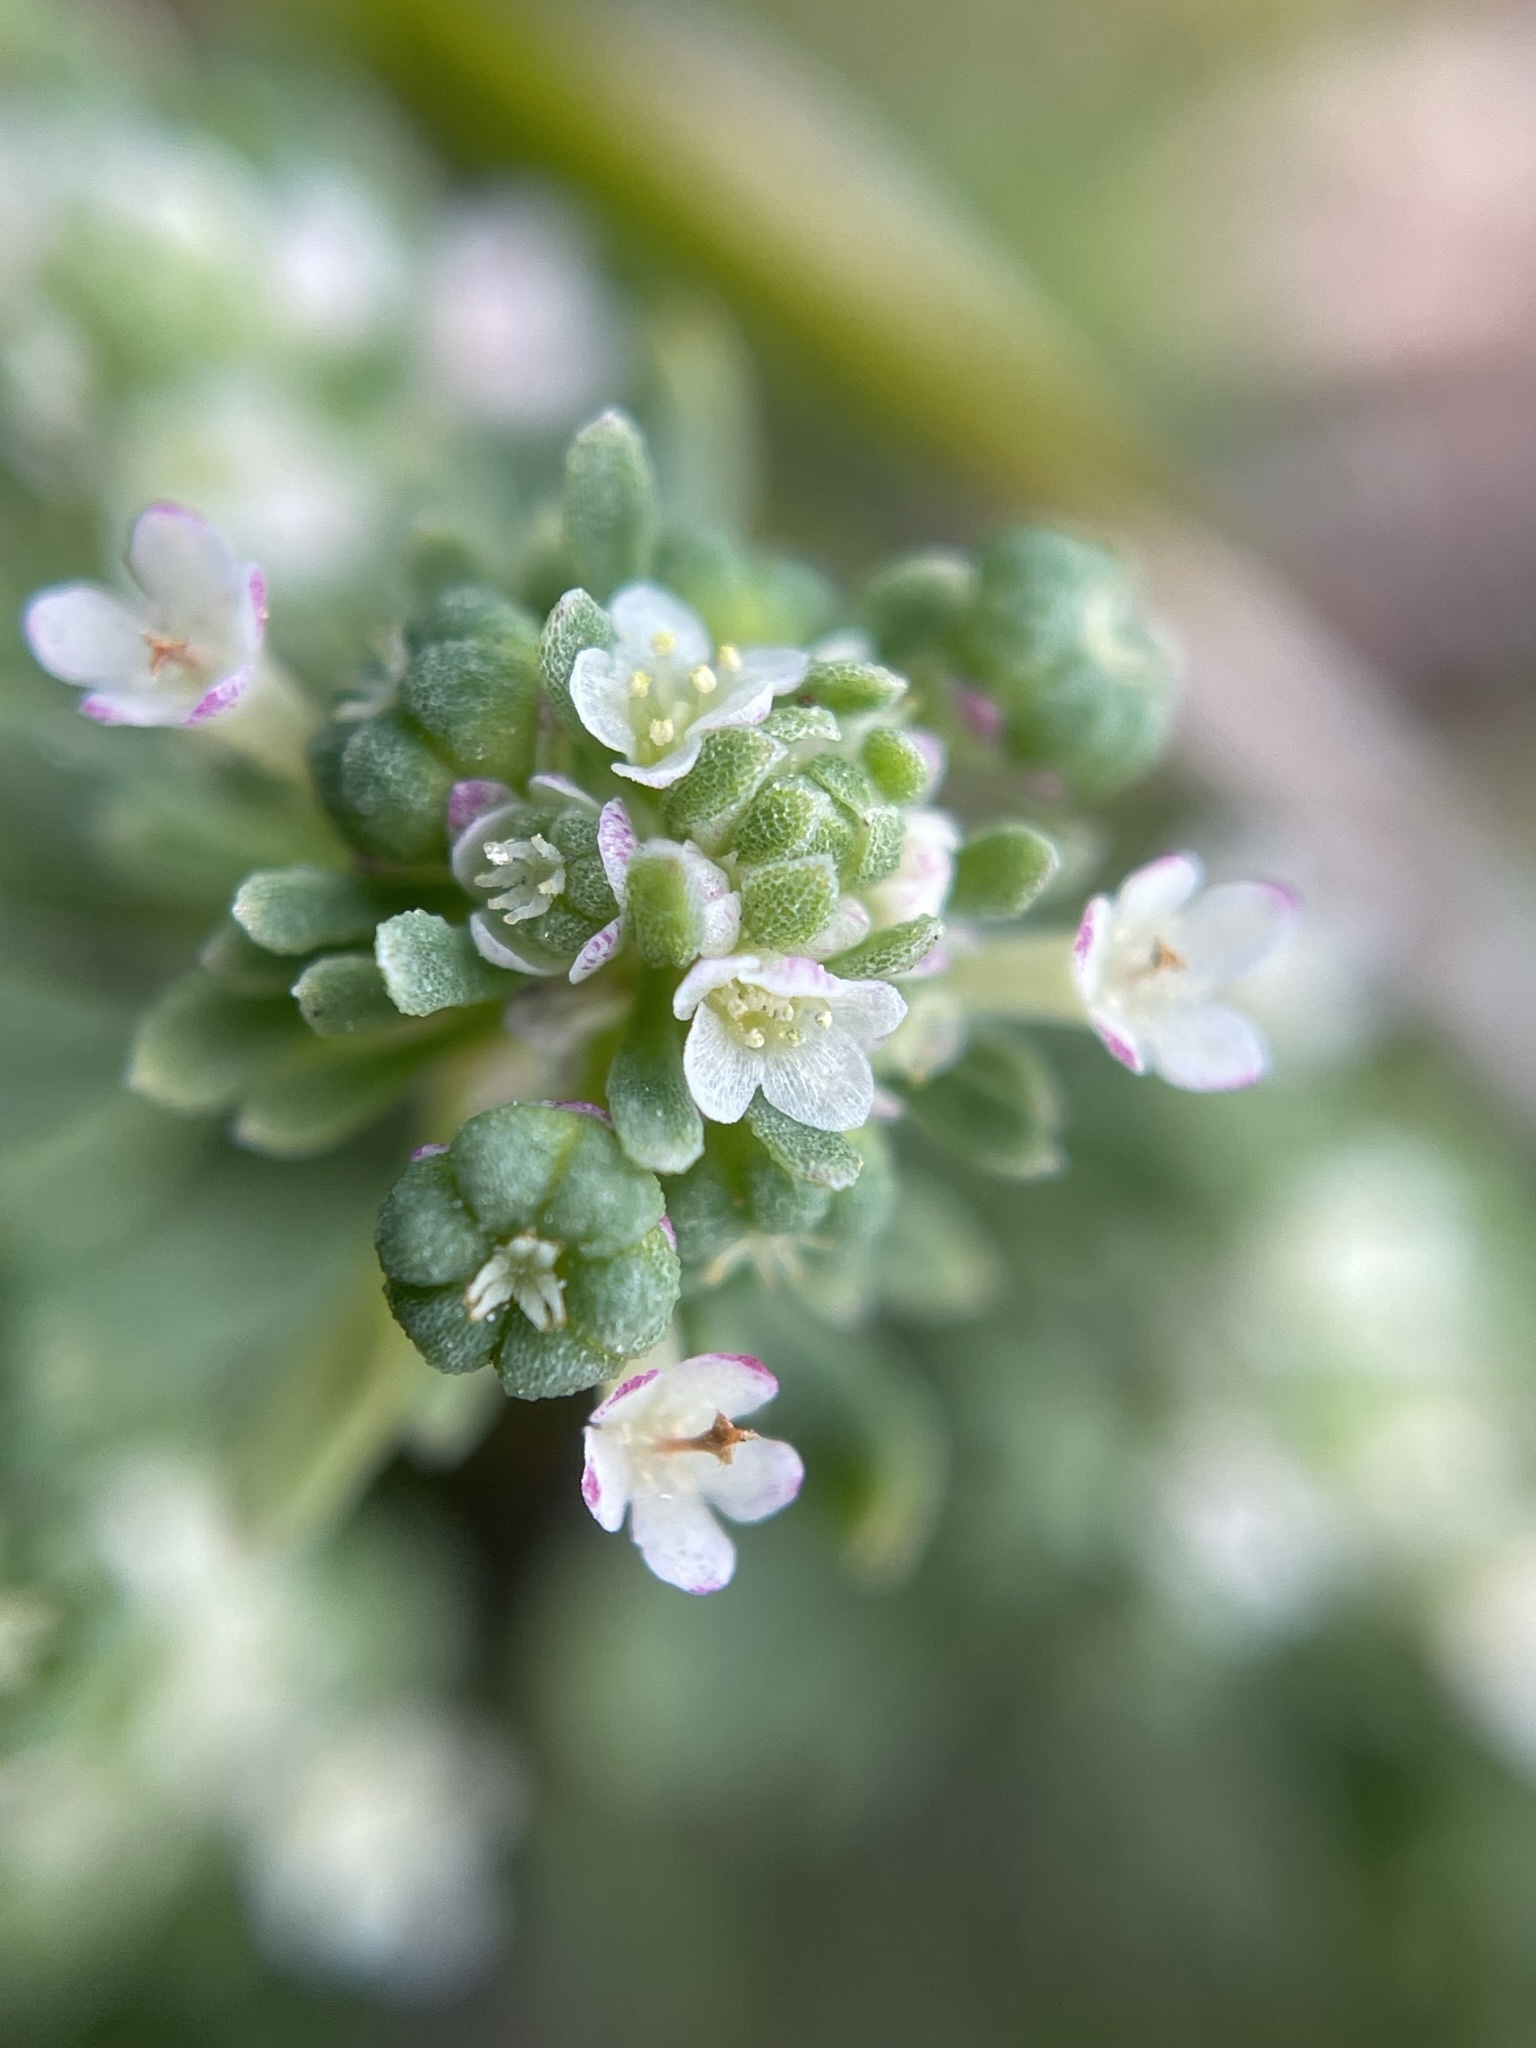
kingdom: Plantae
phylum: Tracheophyta
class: Magnoliopsida
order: Malpighiales
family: Phyllanthaceae
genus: Poranthera
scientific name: Poranthera microphylla
